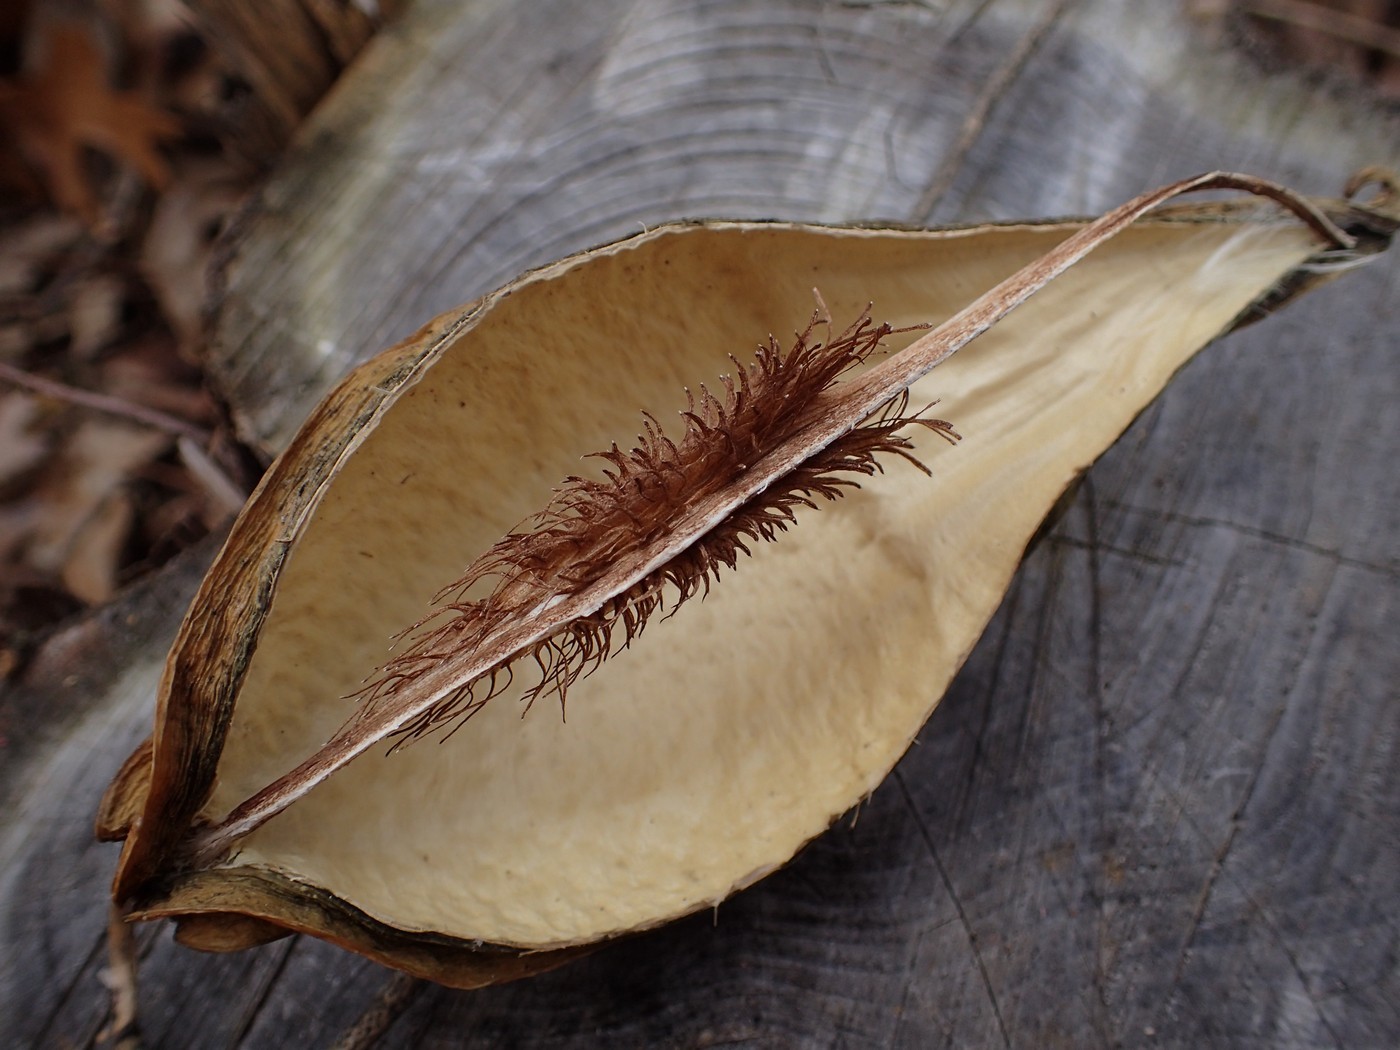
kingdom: Plantae
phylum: Tracheophyta
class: Magnoliopsida
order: Gentianales
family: Apocynaceae
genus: Gonolobus
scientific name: Gonolobus suberosus
